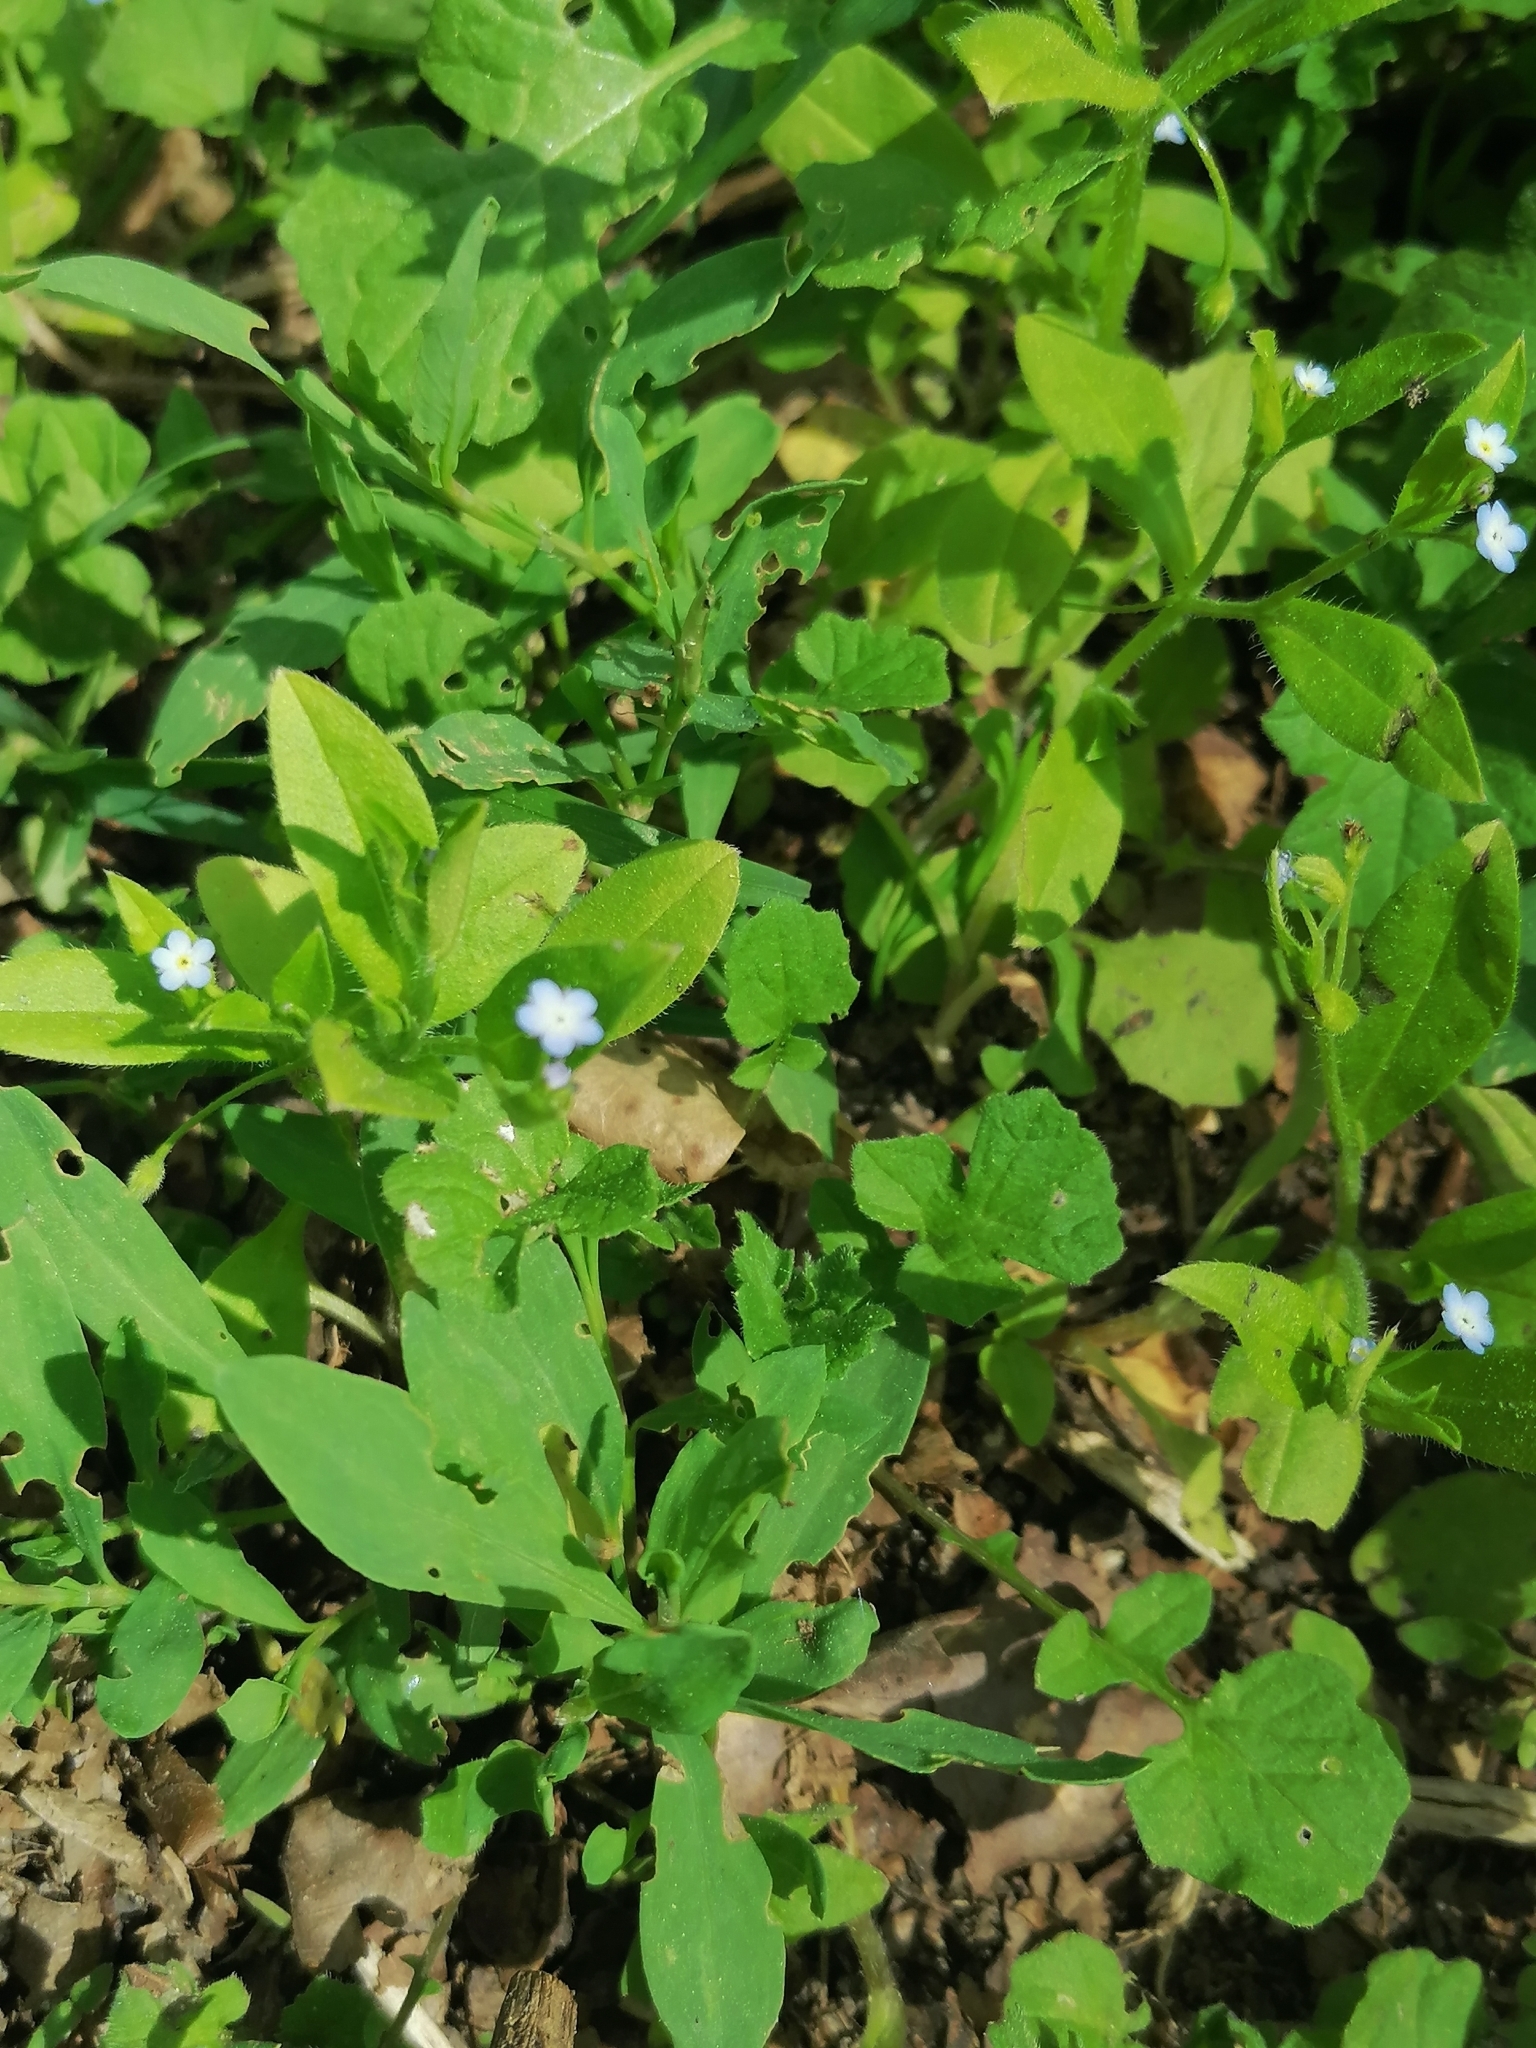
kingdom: Plantae
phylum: Tracheophyta
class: Magnoliopsida
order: Boraginales
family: Boraginaceae
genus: Myosotis
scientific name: Myosotis sparsiflora
